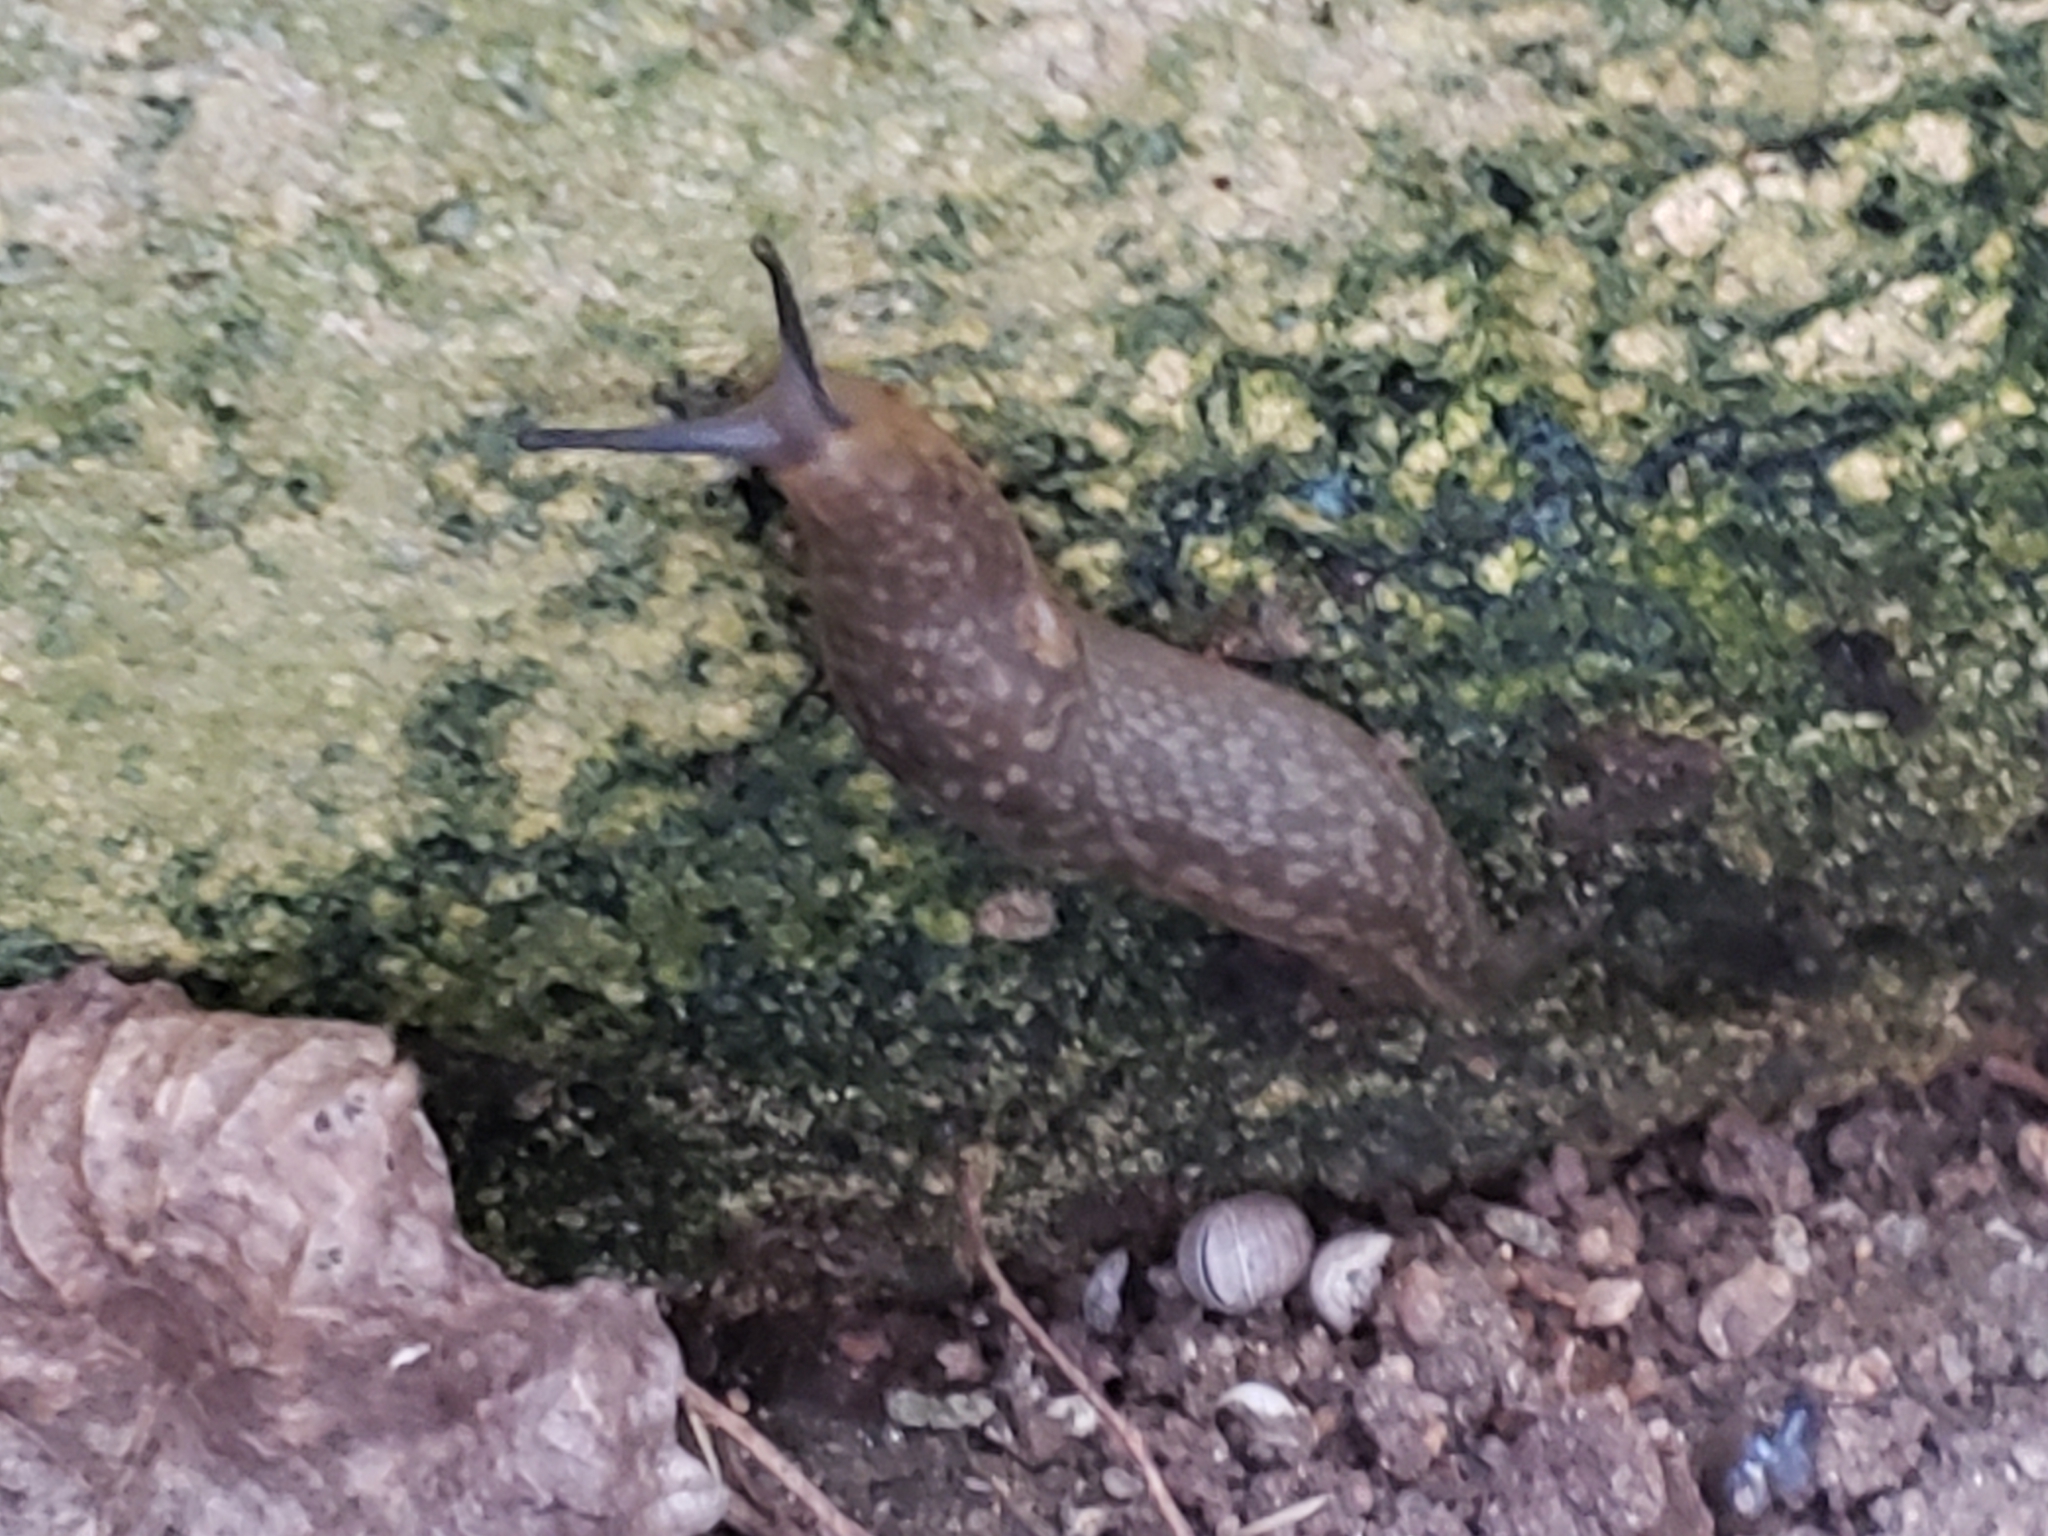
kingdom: Animalia
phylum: Mollusca
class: Gastropoda
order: Stylommatophora
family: Limacidae
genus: Limacus
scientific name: Limacus flavus
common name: Yellow gardenslug
